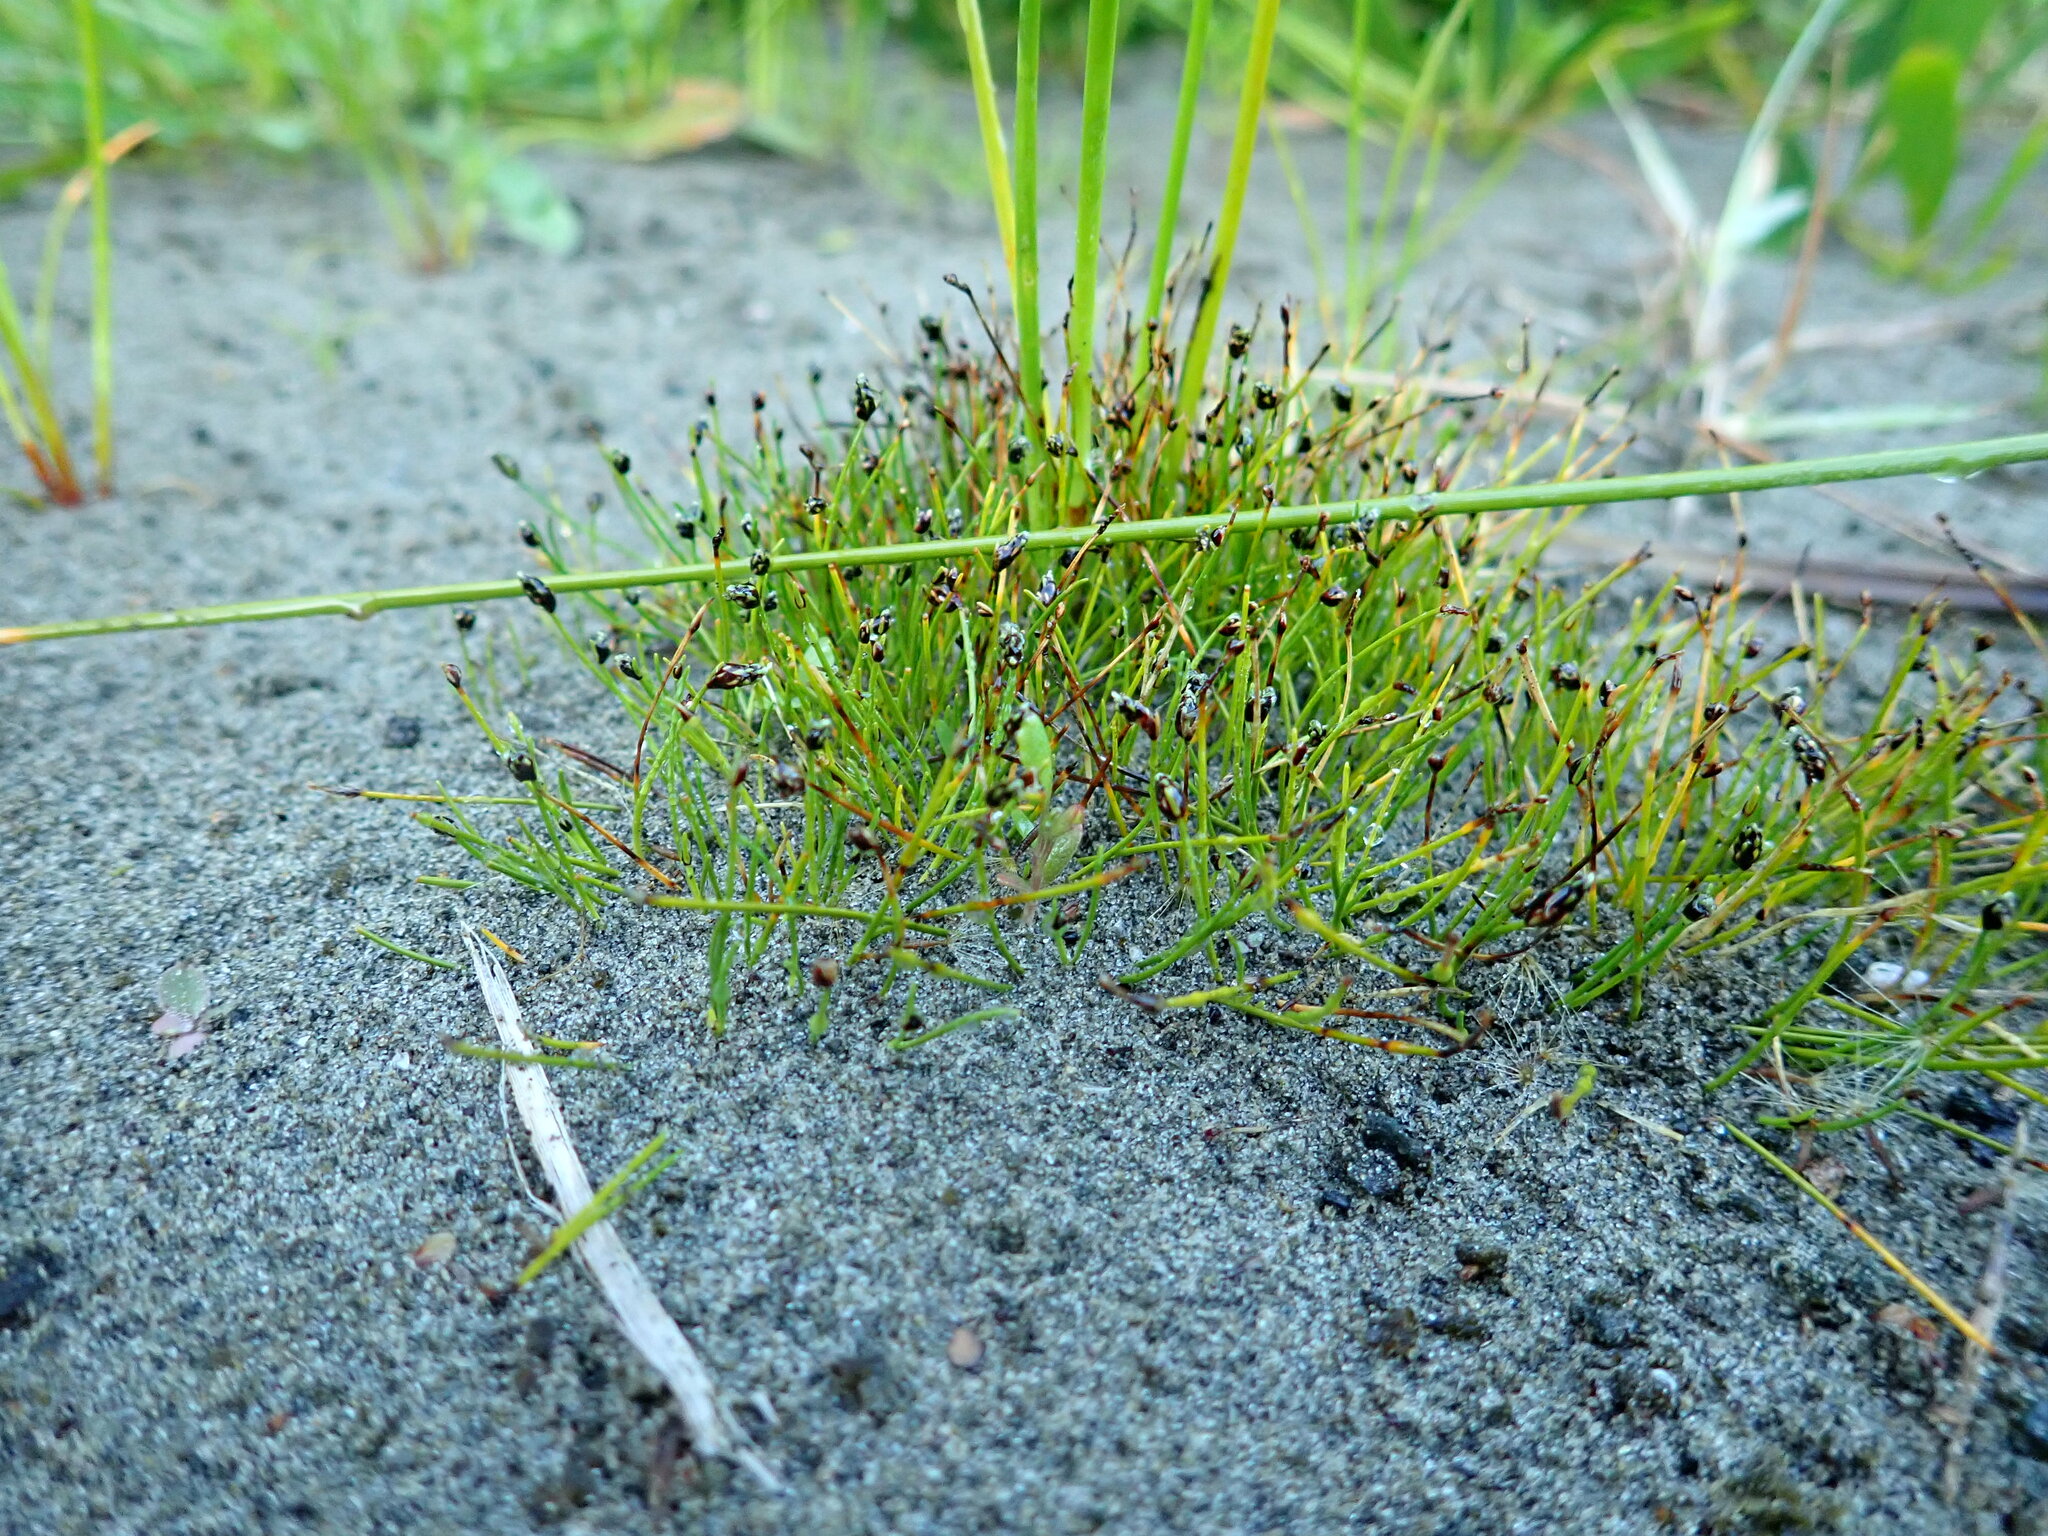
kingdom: Plantae
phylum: Tracheophyta
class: Liliopsida
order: Poales
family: Cyperaceae
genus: Isolepis
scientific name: Isolepis cernua
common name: Slender club-rush
